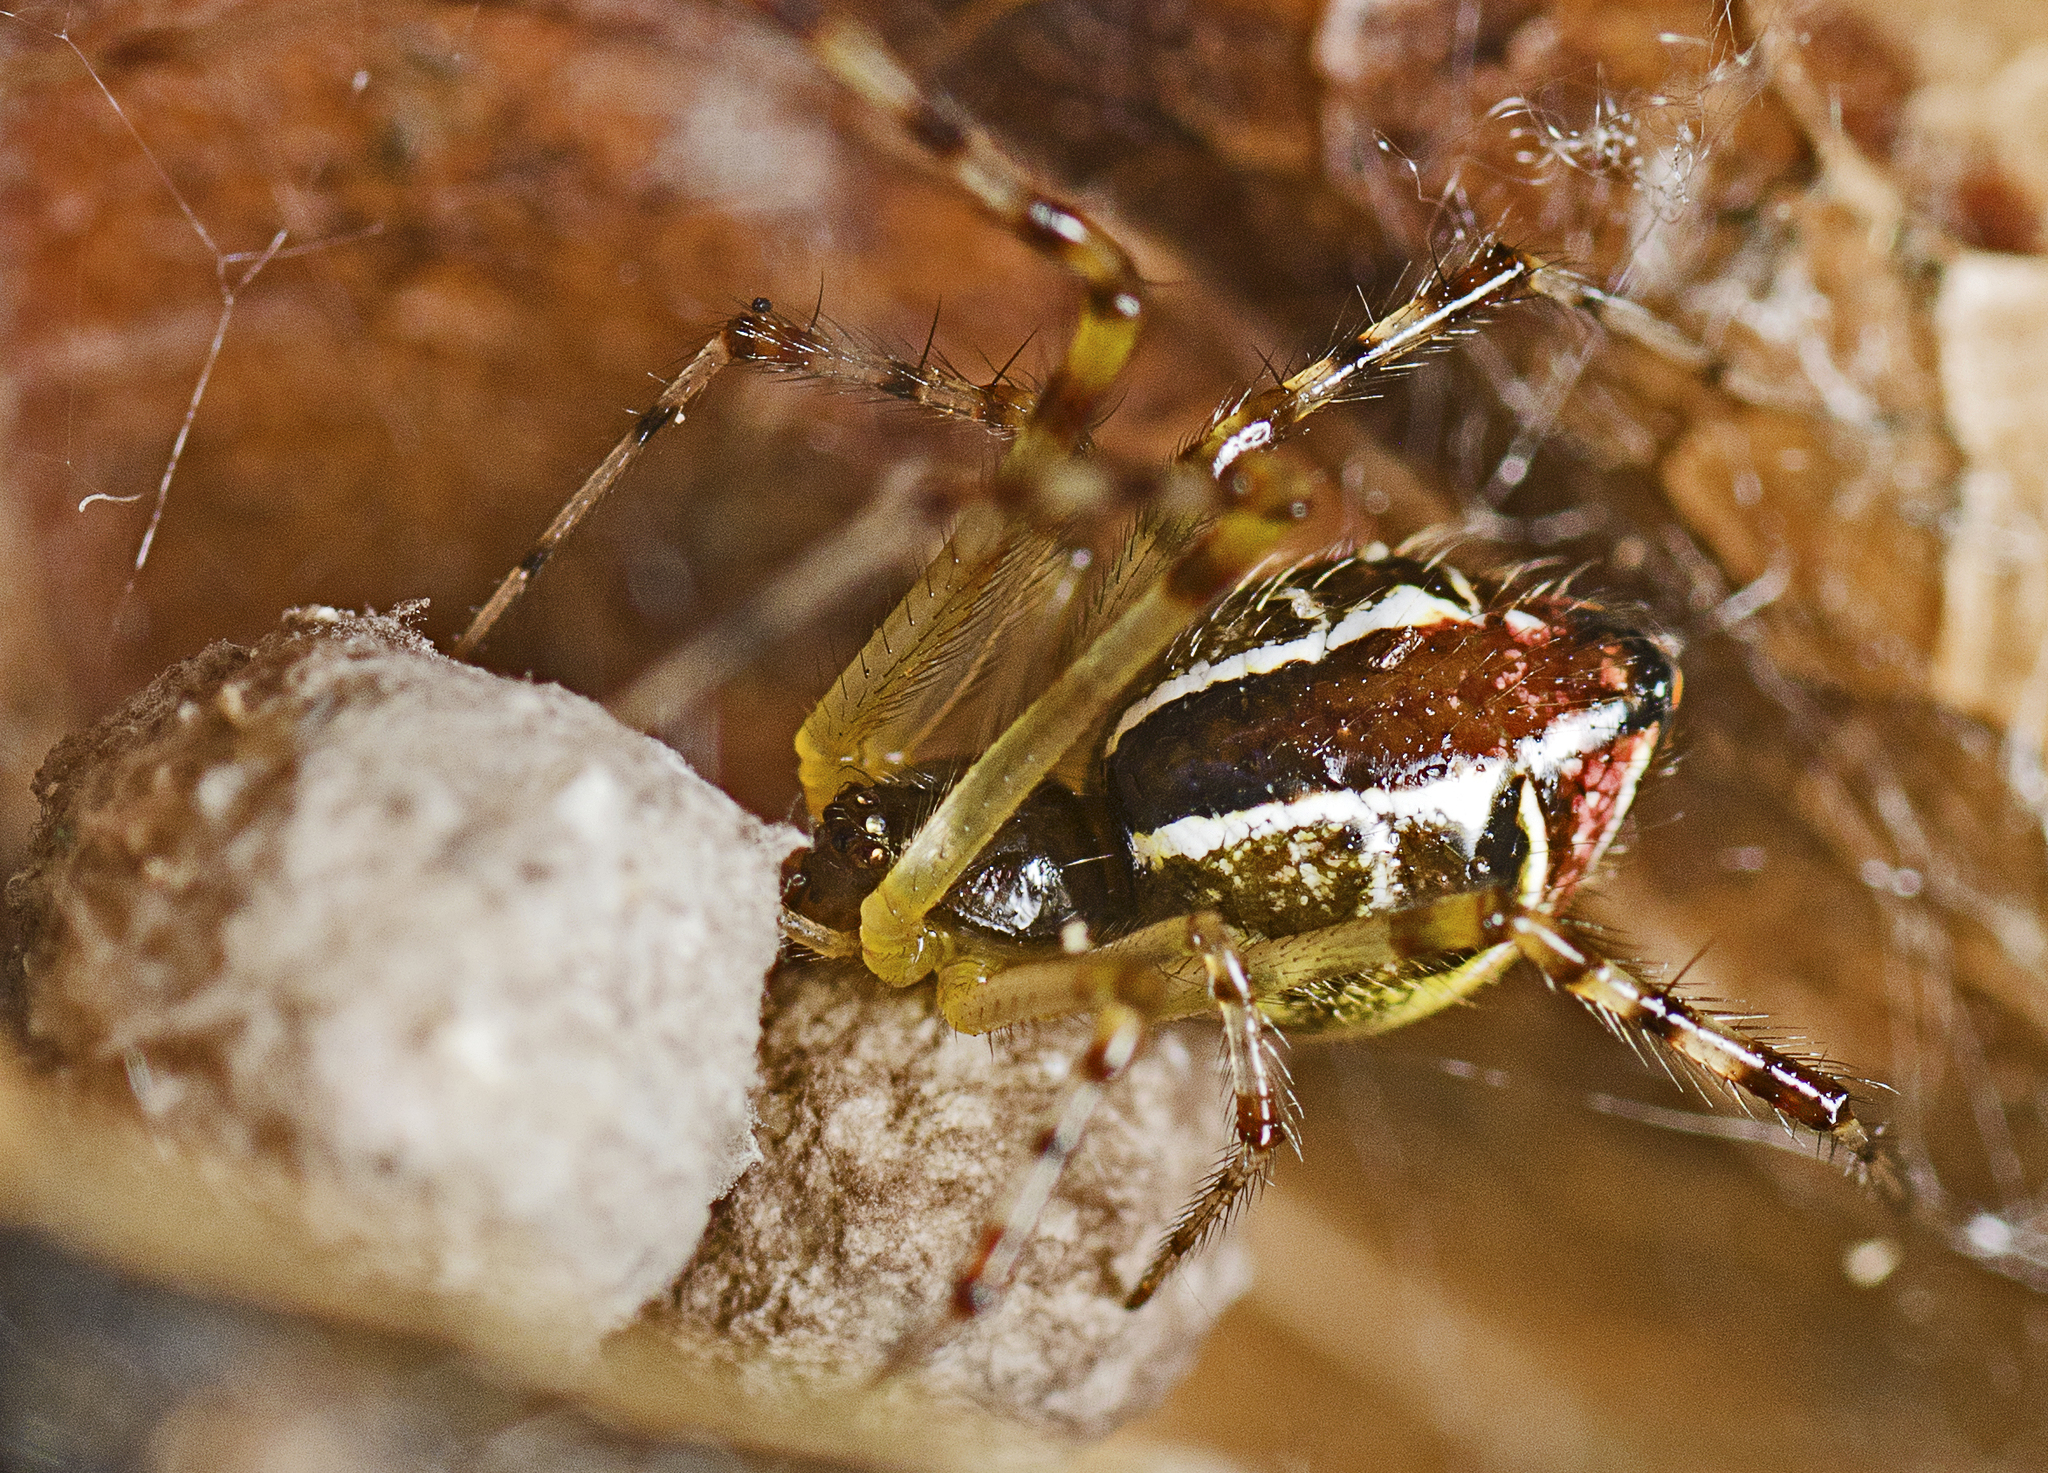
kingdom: Animalia
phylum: Arthropoda
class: Arachnida
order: Araneae
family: Theridiidae
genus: Theridion
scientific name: Theridion pyramidale
